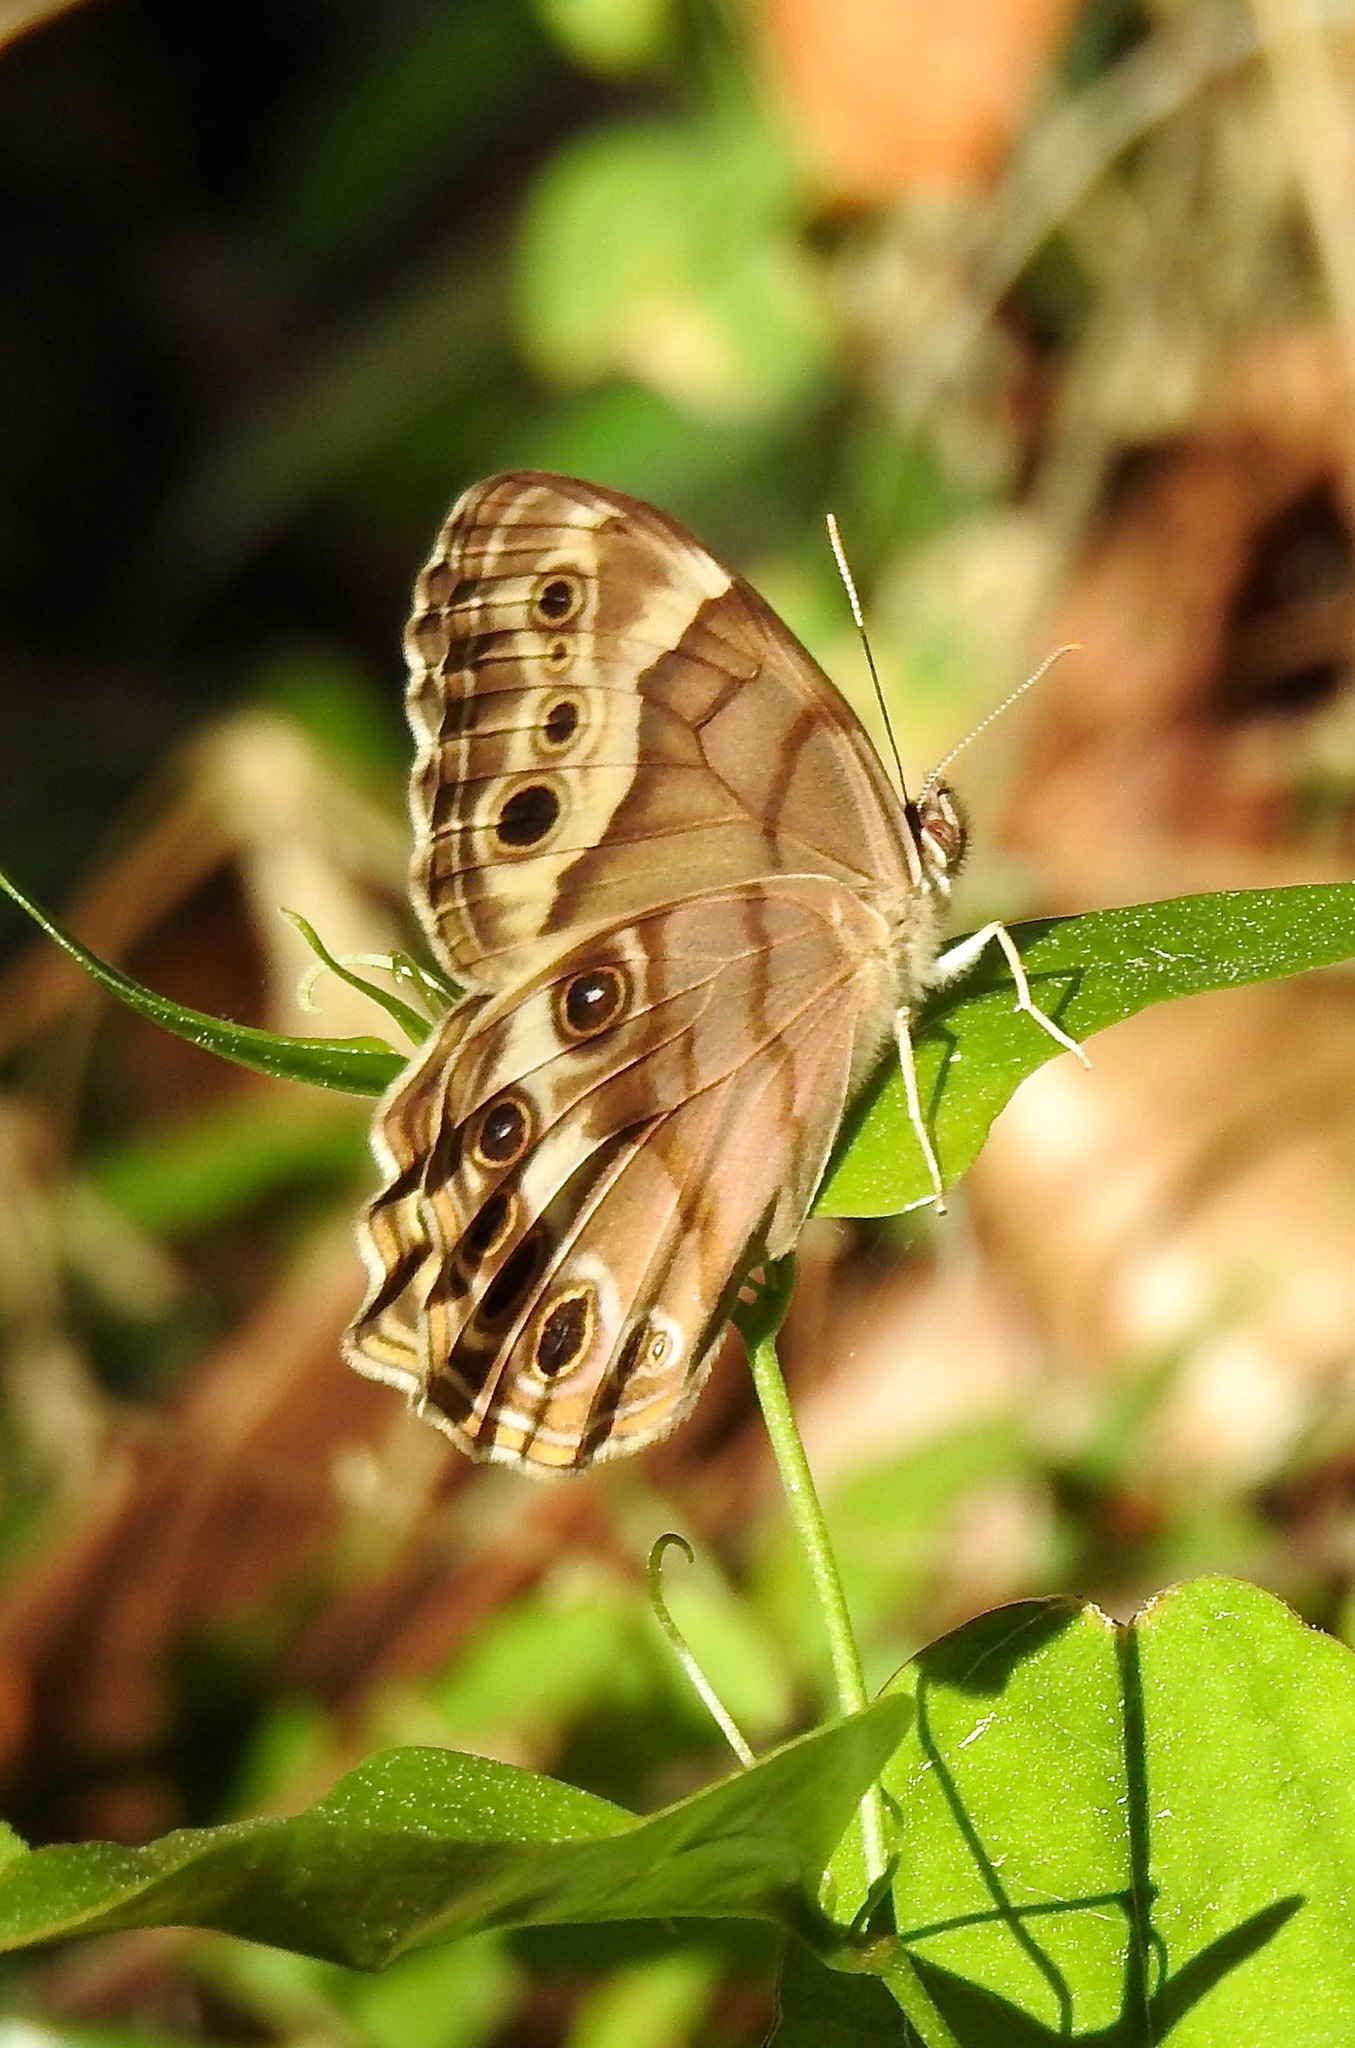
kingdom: Animalia
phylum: Arthropoda
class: Insecta
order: Lepidoptera
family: Nymphalidae
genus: Enodia
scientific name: Enodia portlandia
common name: Southern pearly-eye
